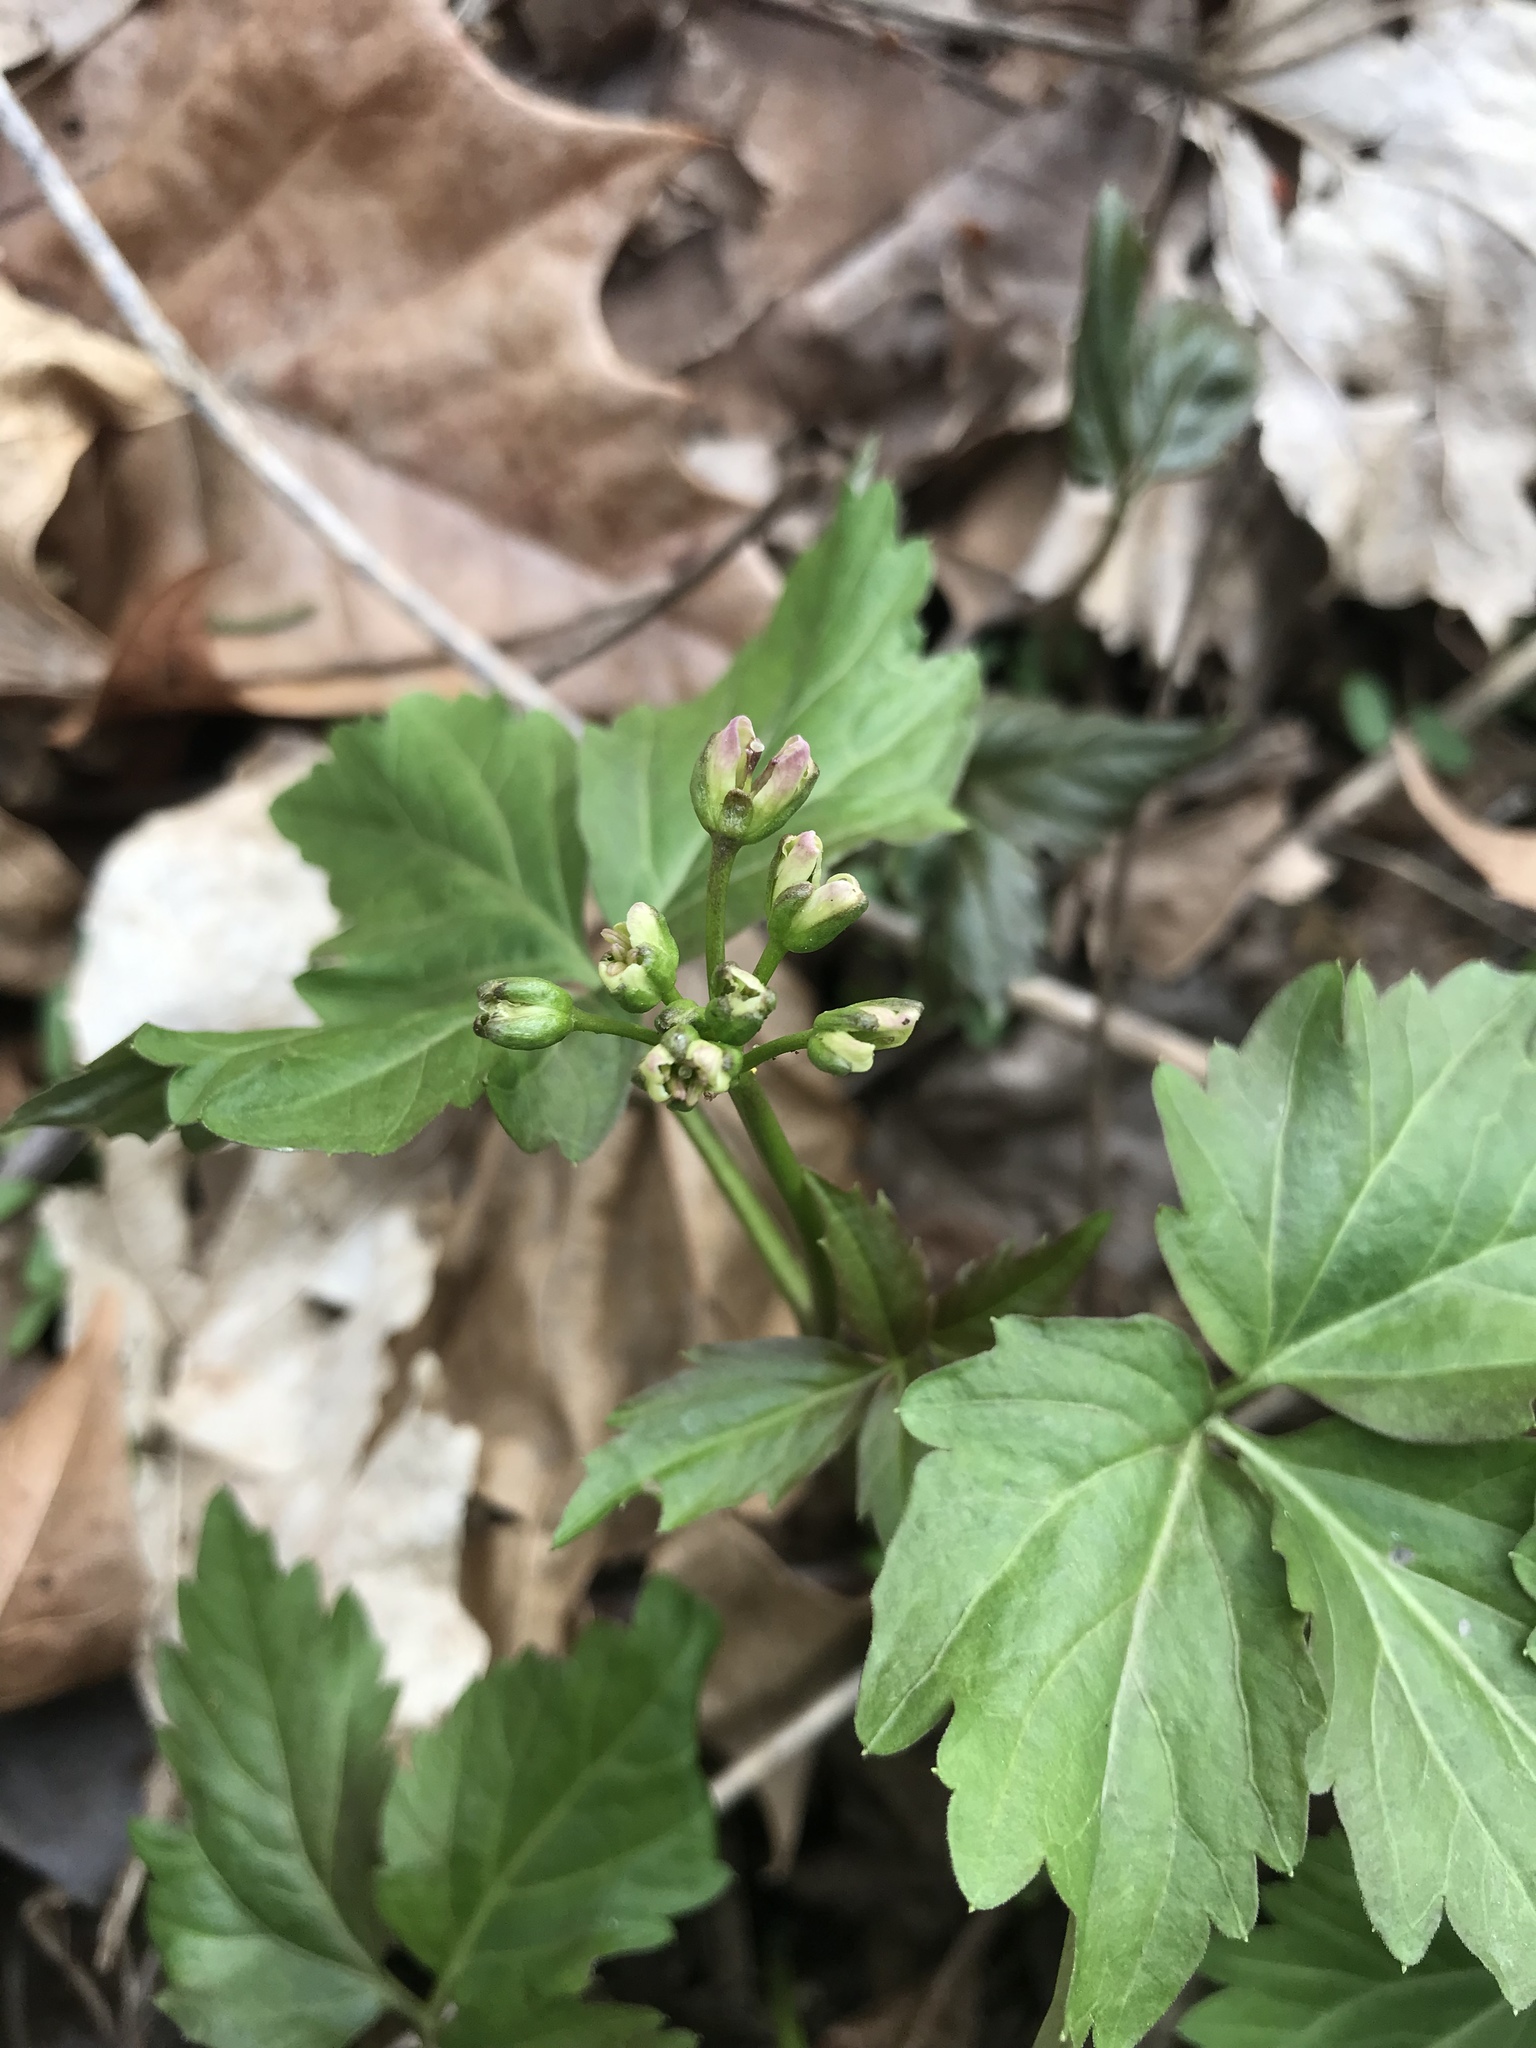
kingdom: Plantae
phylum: Tracheophyta
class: Magnoliopsida
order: Brassicales
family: Brassicaceae
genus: Cardamine
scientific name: Cardamine diphylla
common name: Broad-leaved toothwort
